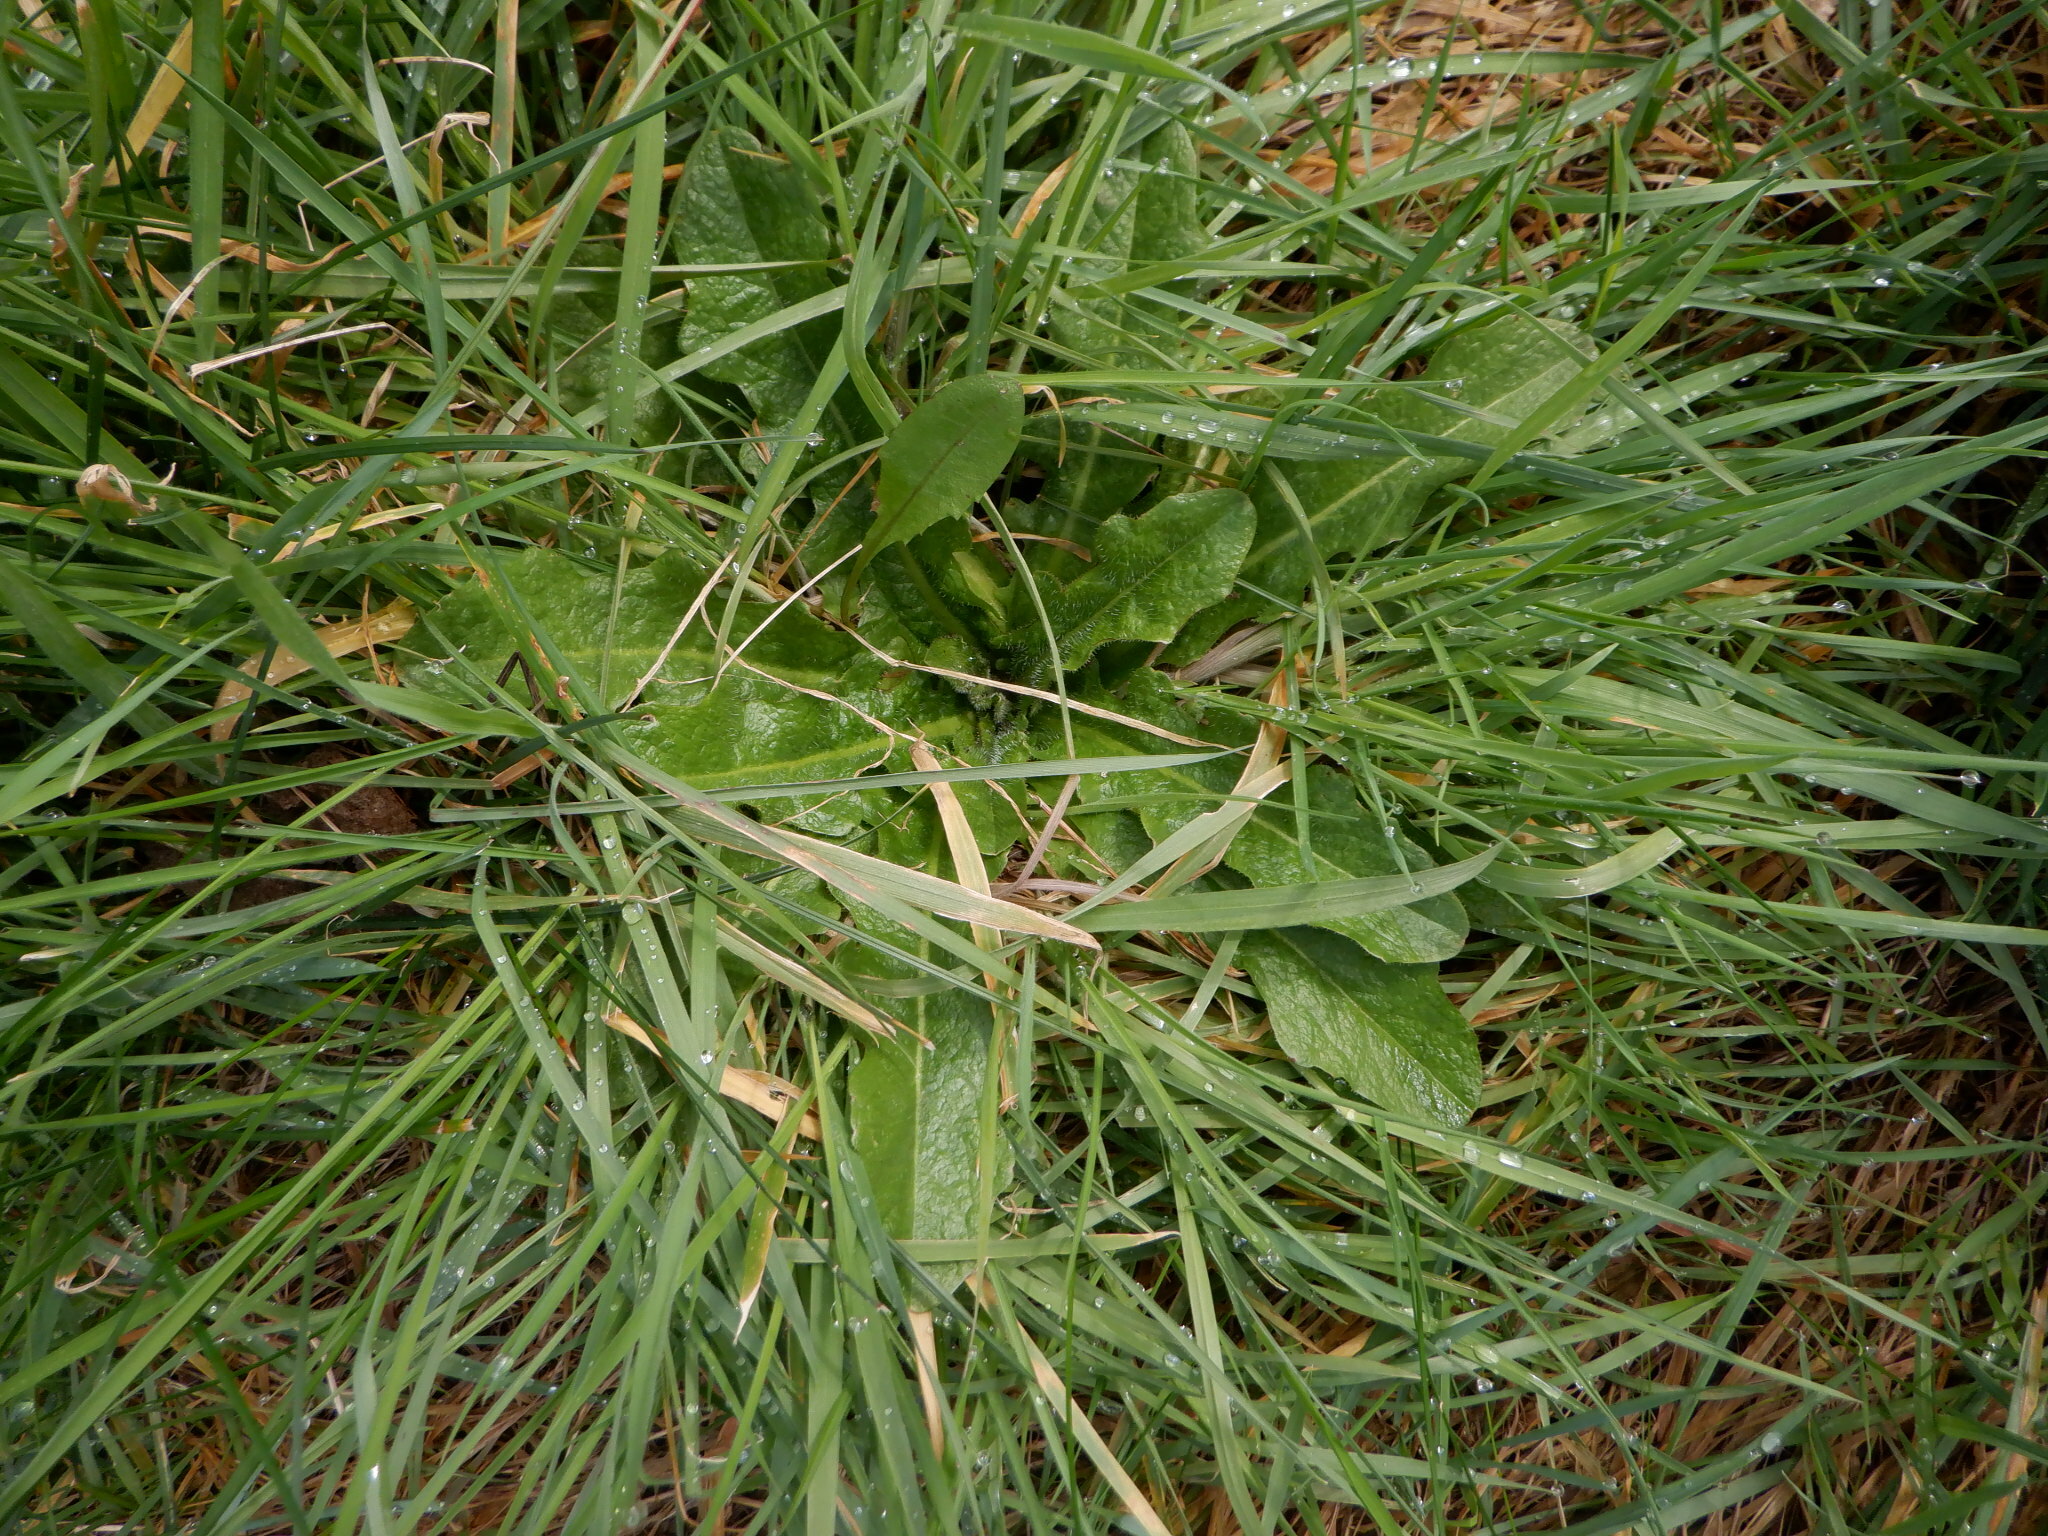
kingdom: Plantae
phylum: Tracheophyta
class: Magnoliopsida
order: Asterales
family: Asteraceae
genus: Hypochaeris
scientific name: Hypochaeris radicata
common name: Flatweed
